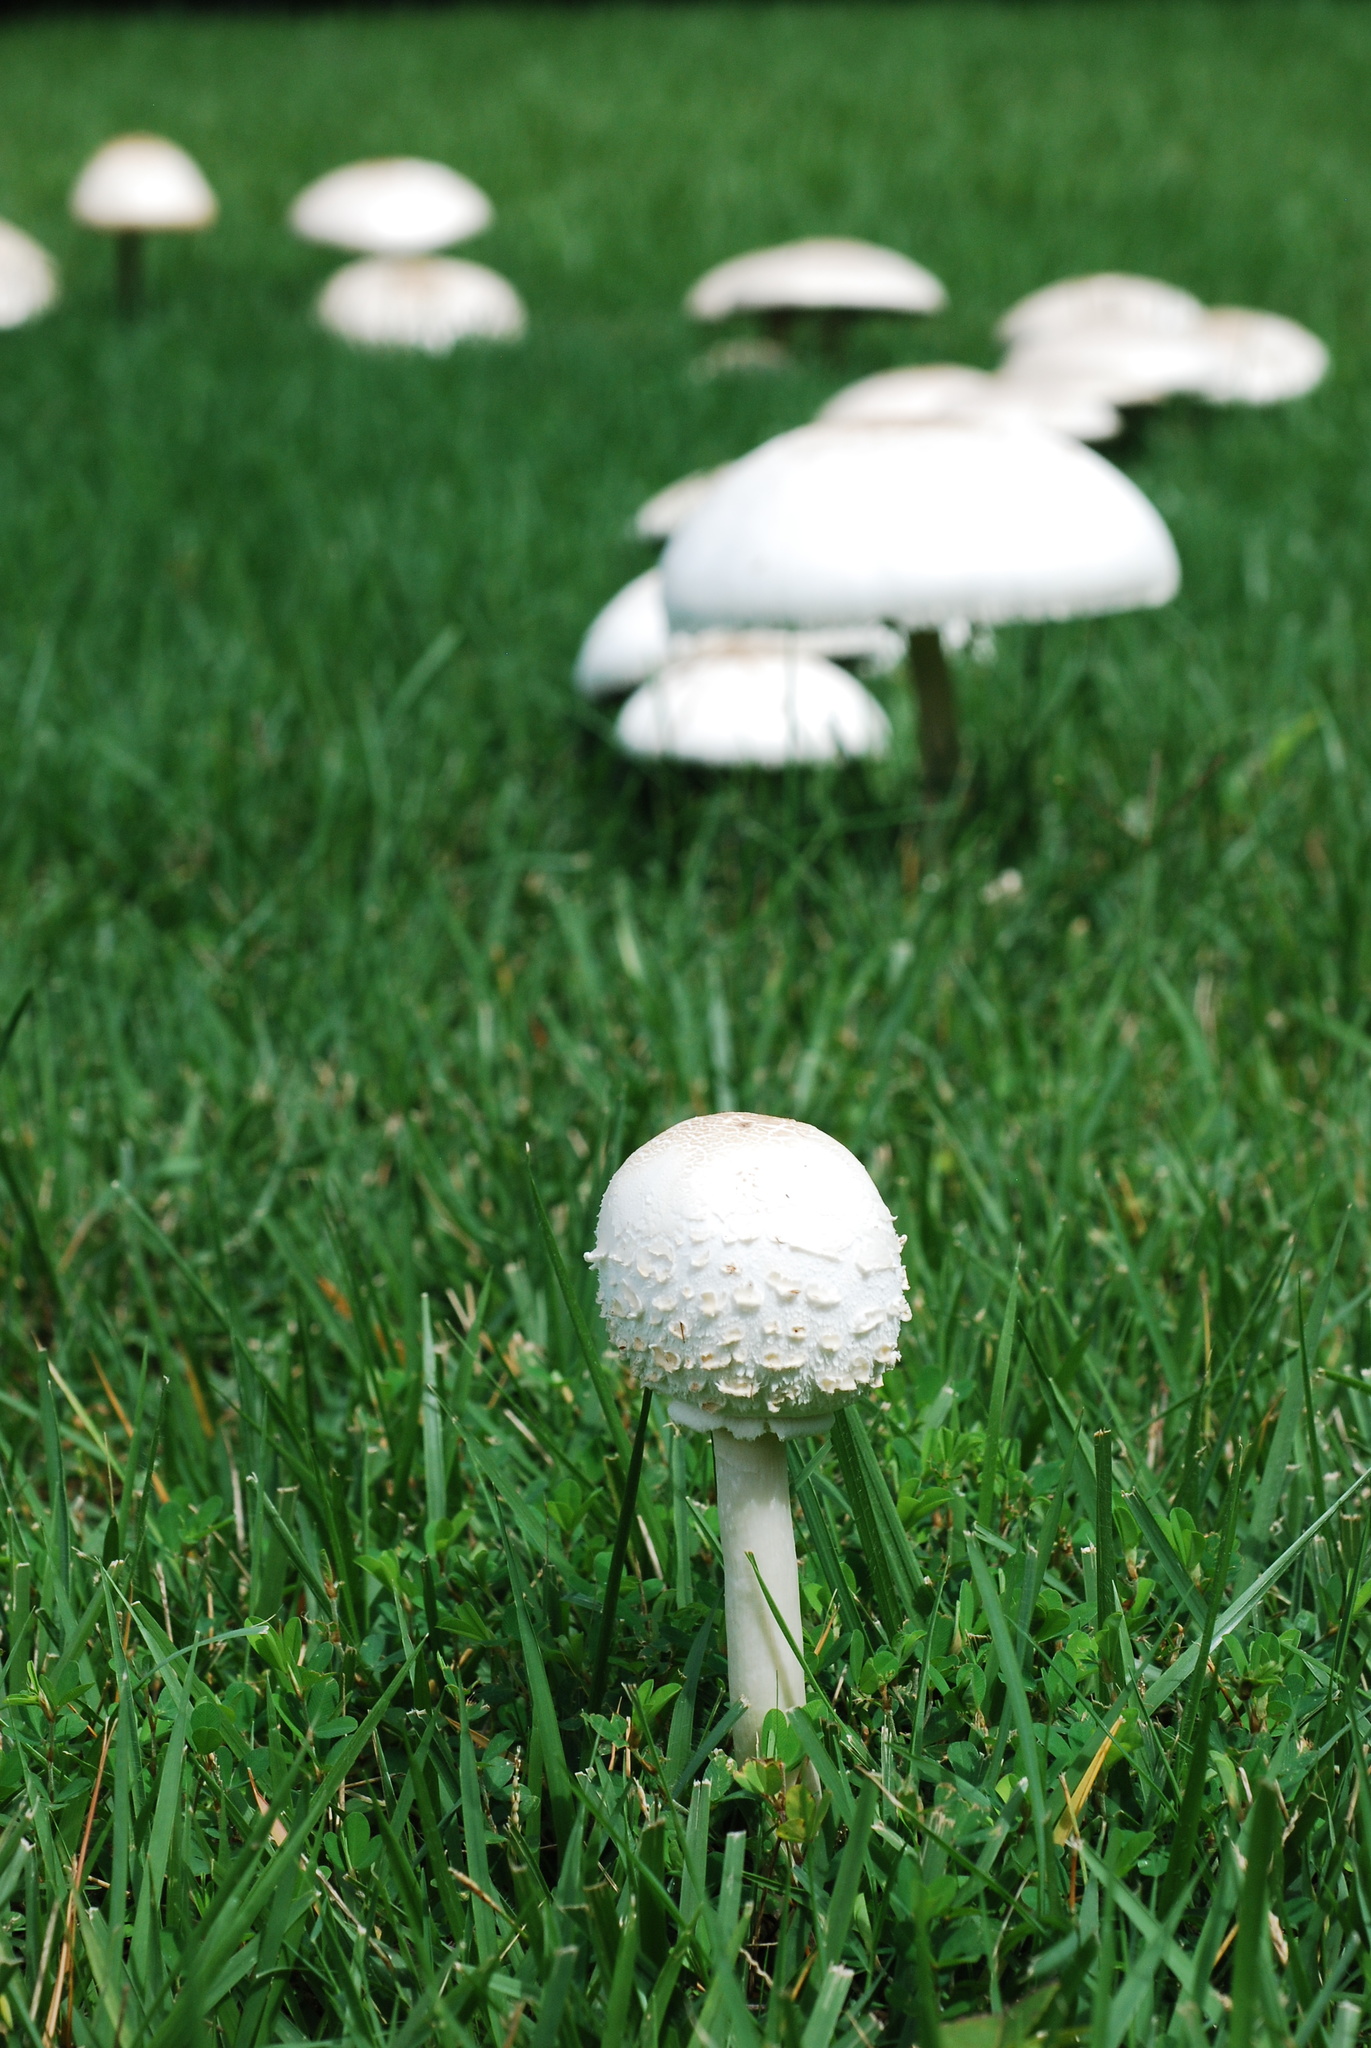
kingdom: Fungi
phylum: Basidiomycota
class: Agaricomycetes
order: Agaricales
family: Agaricaceae
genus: Chlorophyllum
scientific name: Chlorophyllum molybdites
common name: False parasol
